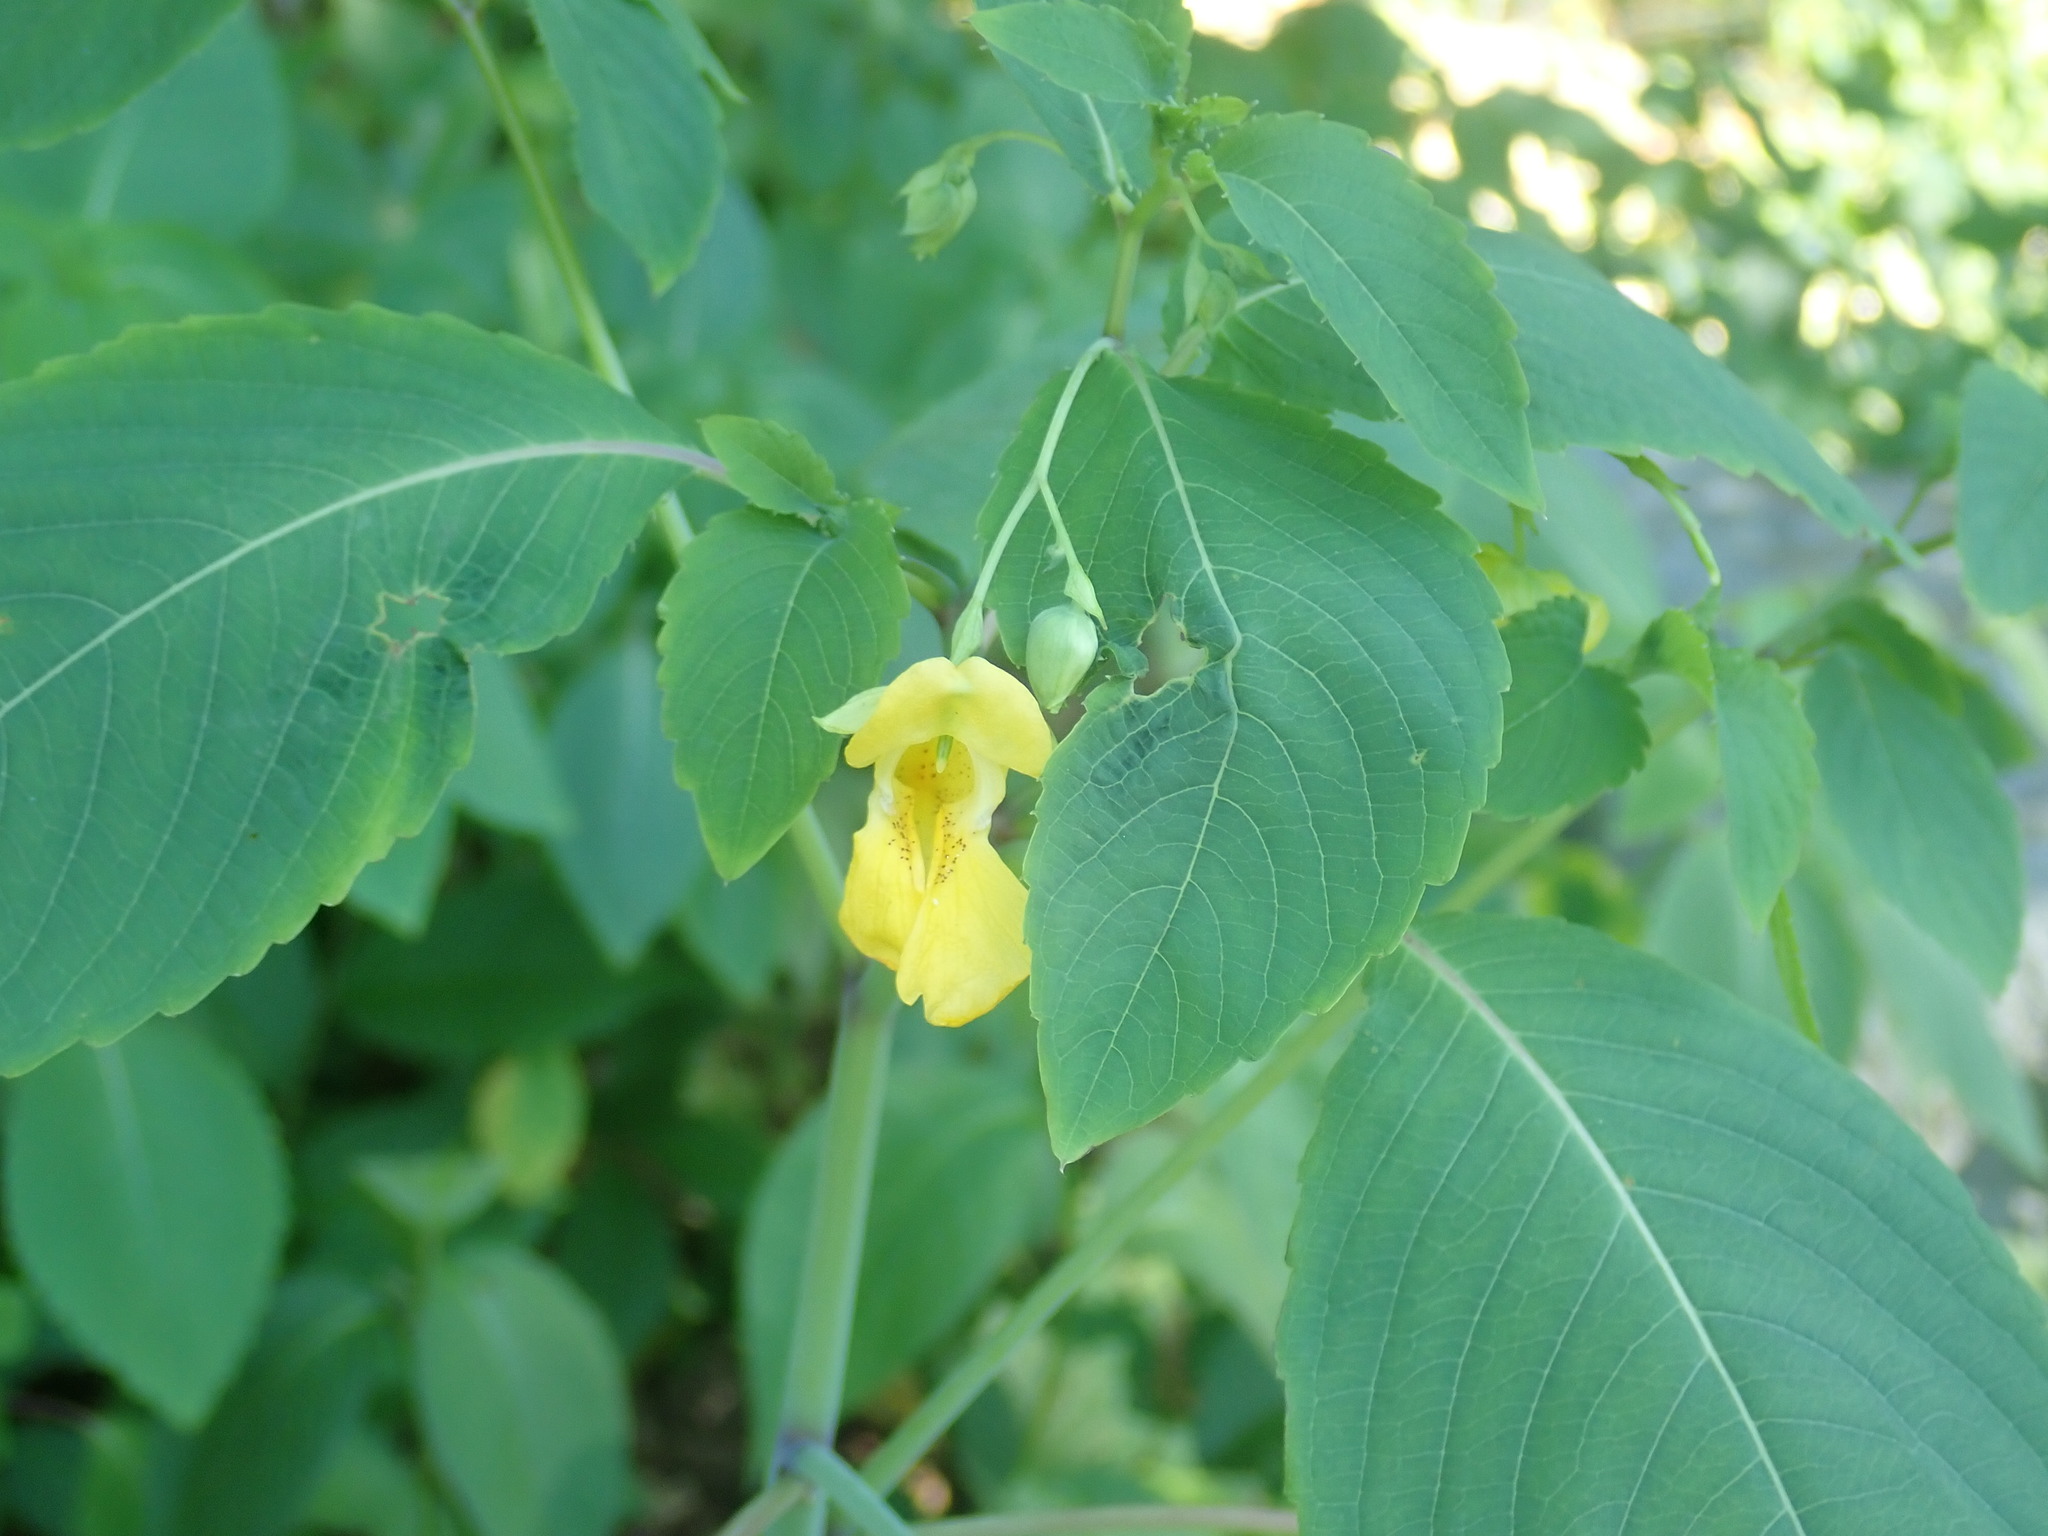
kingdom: Plantae
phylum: Tracheophyta
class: Magnoliopsida
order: Ericales
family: Balsaminaceae
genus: Impatiens
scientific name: Impatiens pallida
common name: Pale snapweed
